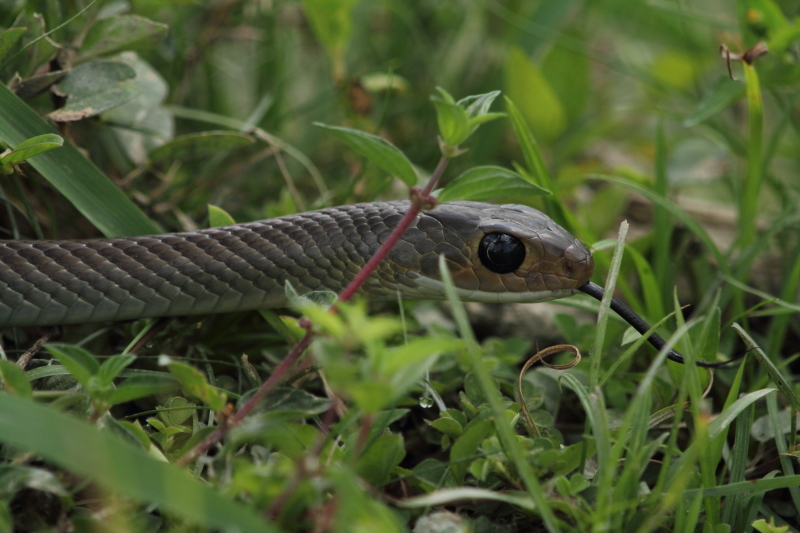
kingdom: Animalia
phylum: Chordata
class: Squamata
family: Colubridae
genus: Ptyas
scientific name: Ptyas korros
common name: Indo-chinese rat snake
